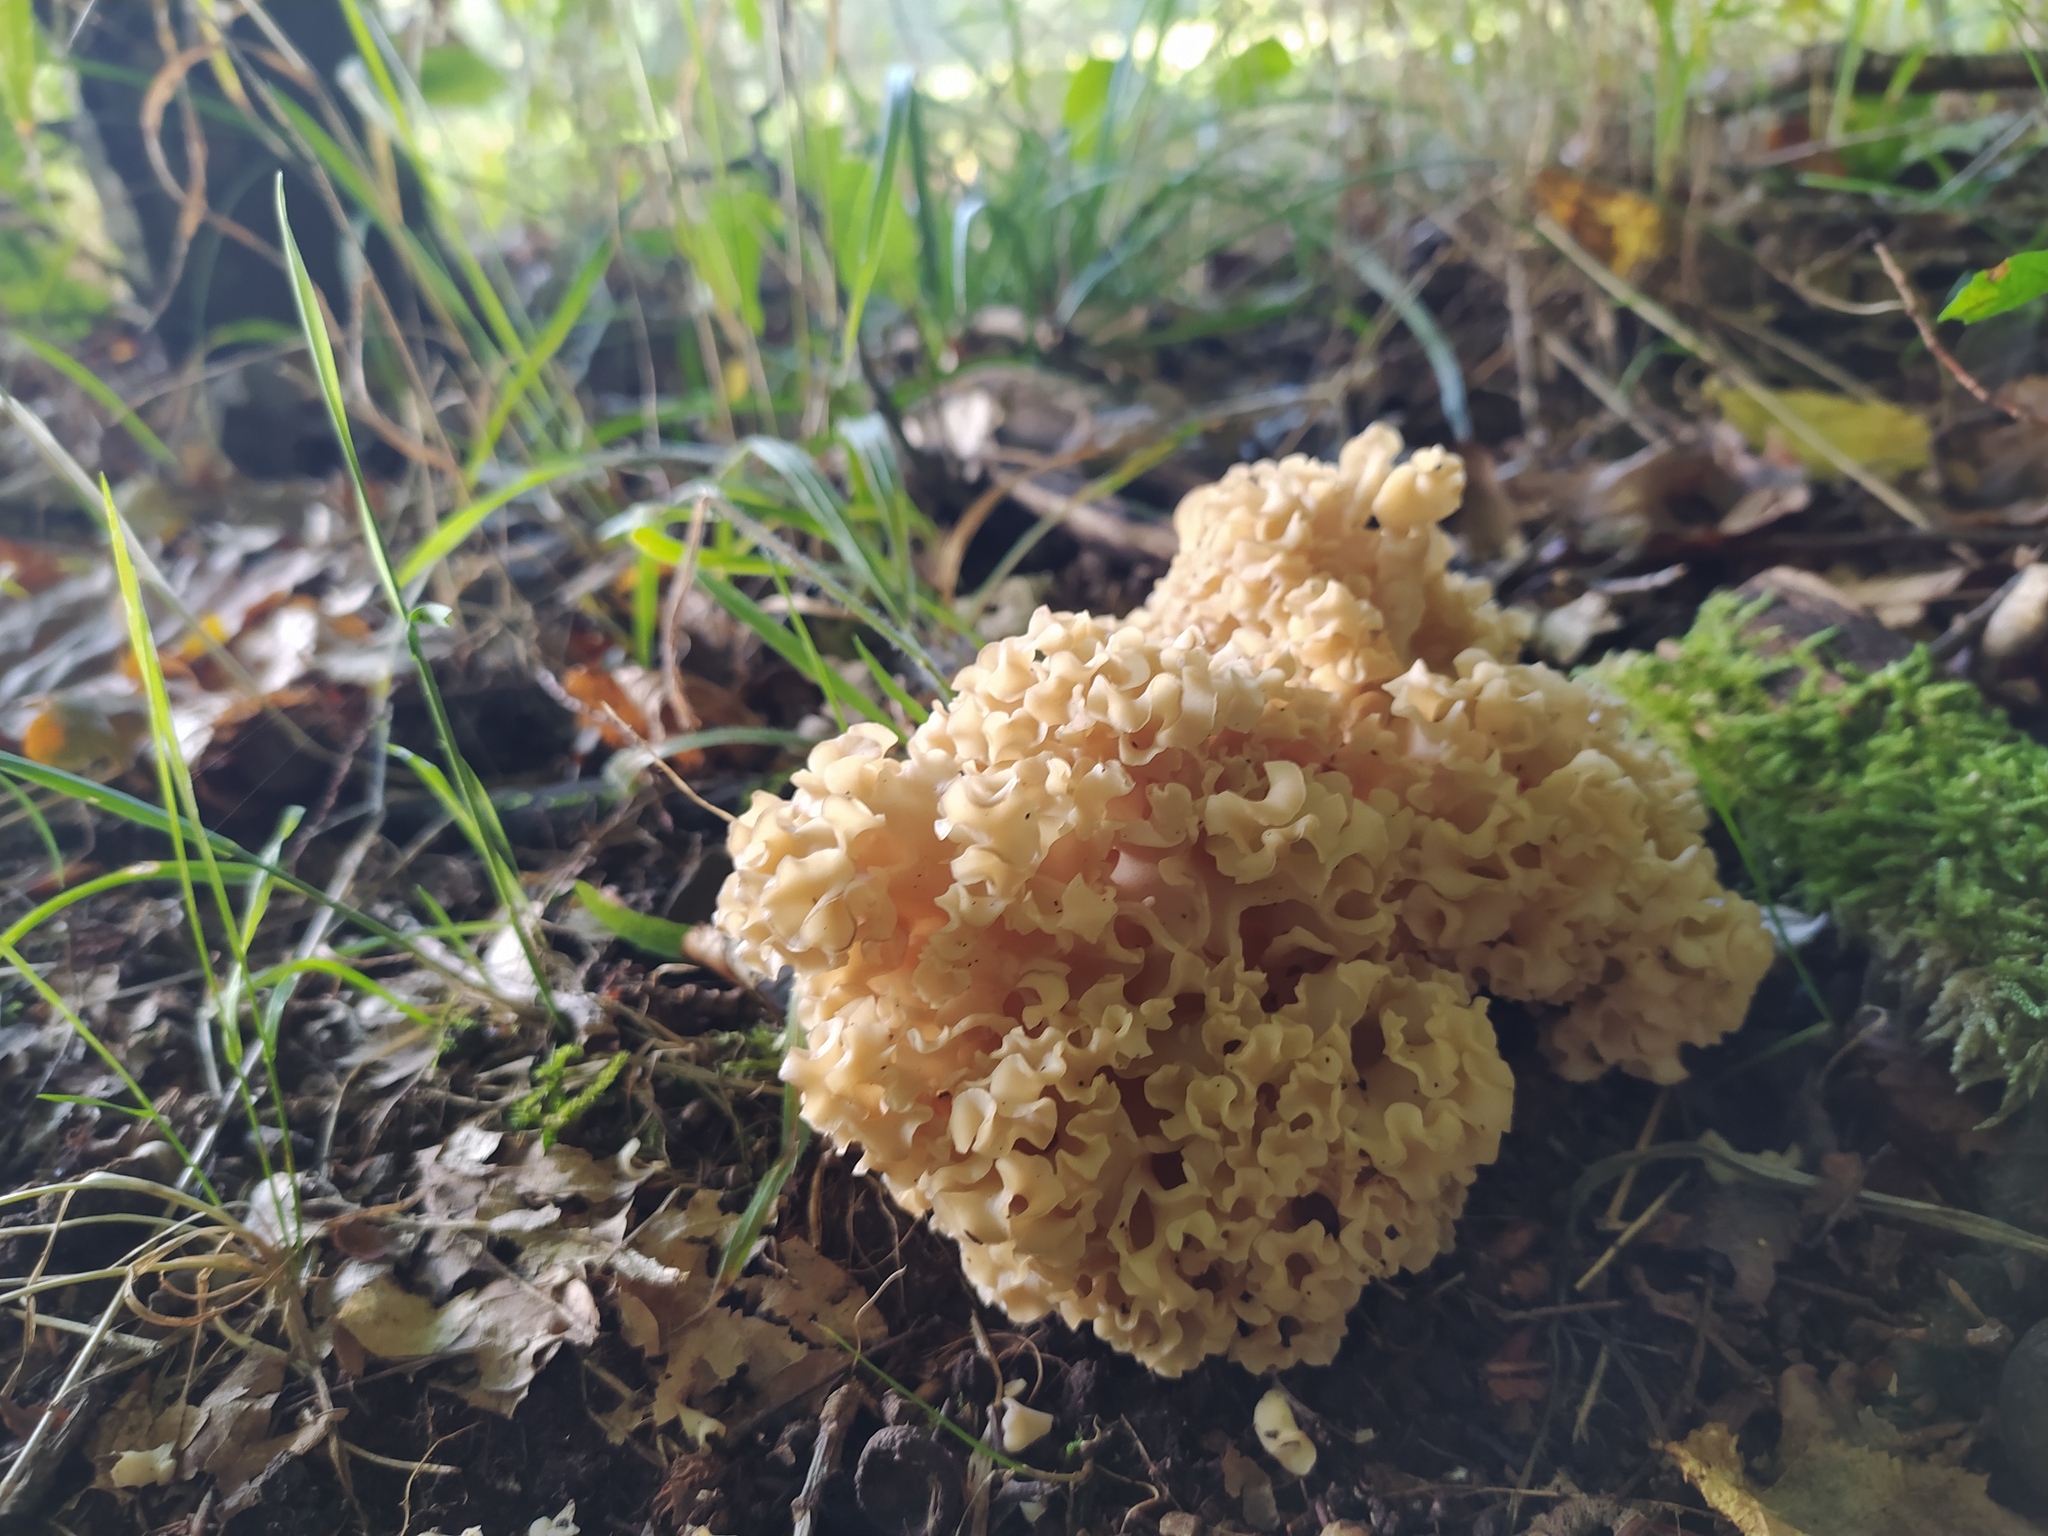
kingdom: Fungi
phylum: Basidiomycota
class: Agaricomycetes
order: Polyporales
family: Sparassidaceae
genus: Sparassis
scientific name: Sparassis crispa
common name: Brain fungus
